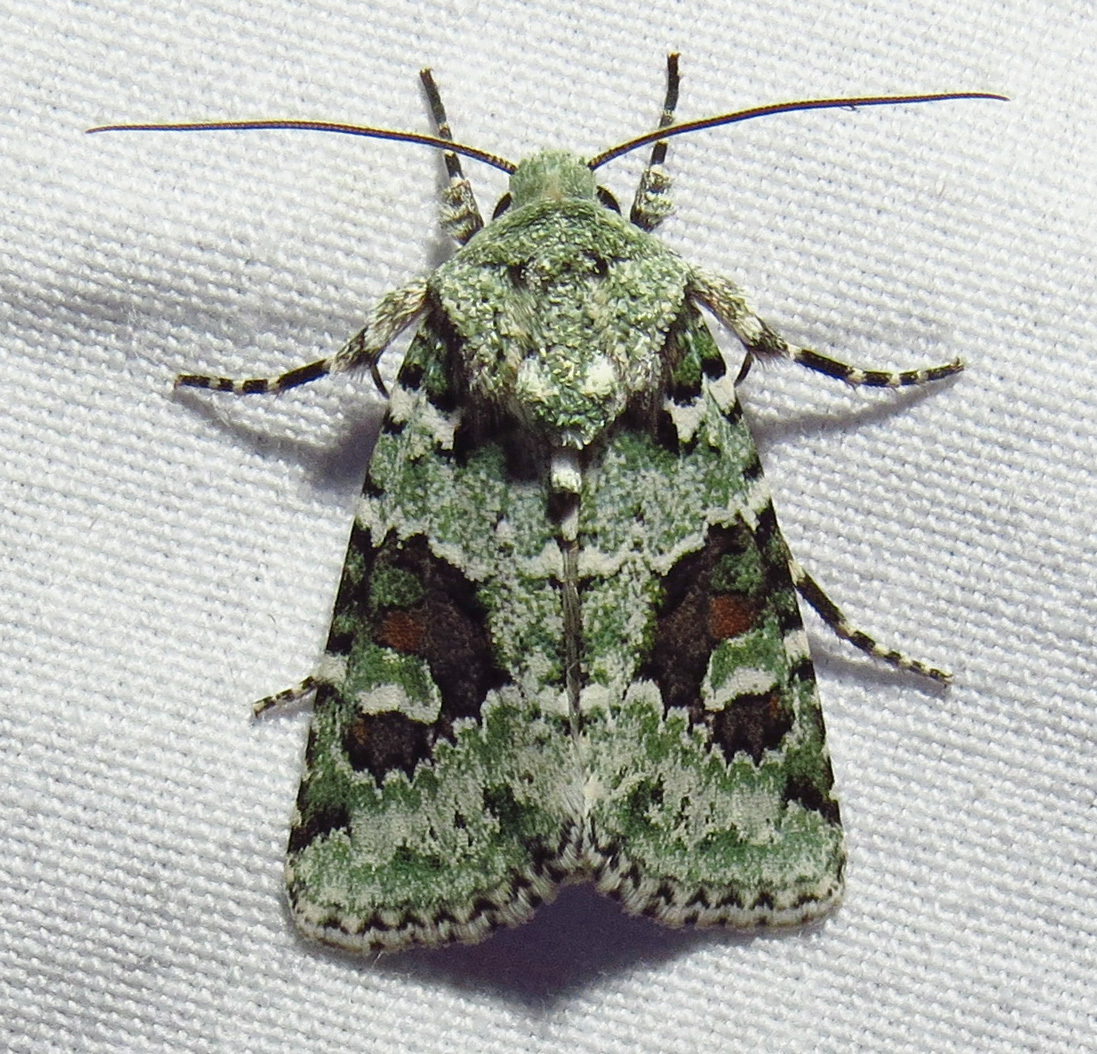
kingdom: Animalia
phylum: Arthropoda
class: Insecta
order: Lepidoptera
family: Noctuidae
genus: Lacinipolia
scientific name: Lacinipolia laudabilis
